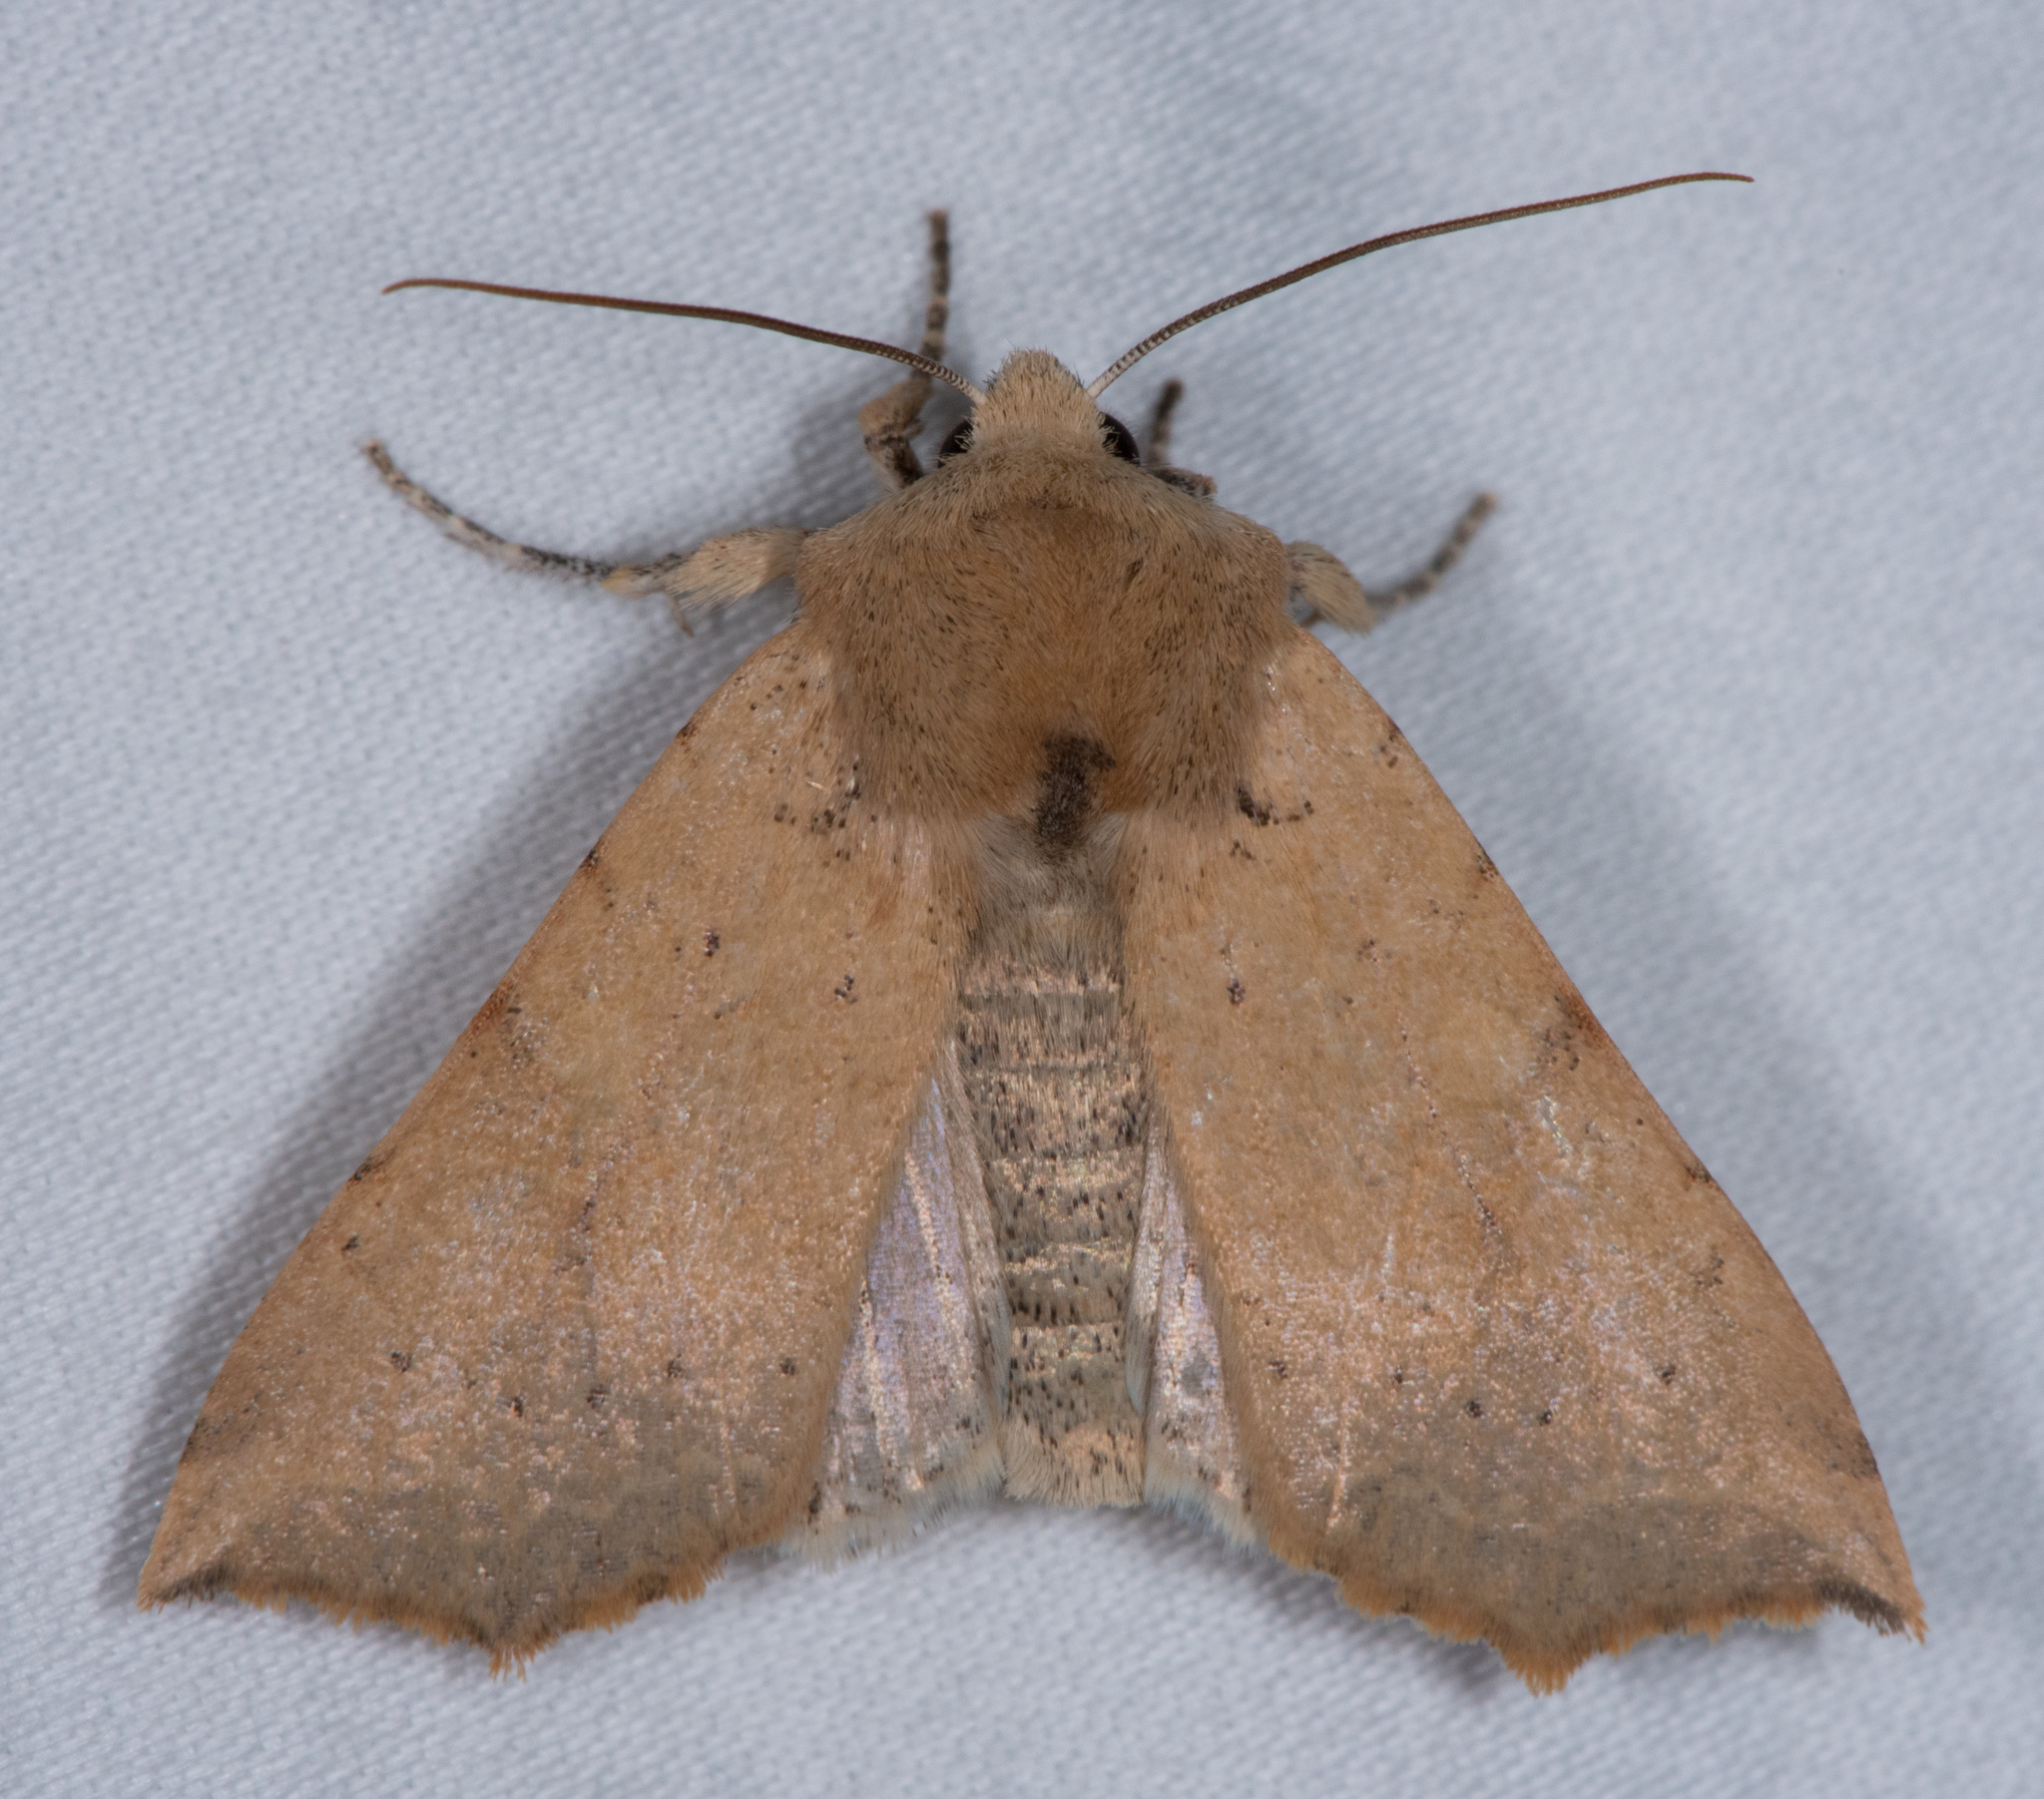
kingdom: Animalia
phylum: Arthropoda
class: Insecta
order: Lepidoptera
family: Noctuidae
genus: Perigonica
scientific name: Perigonica angulata
